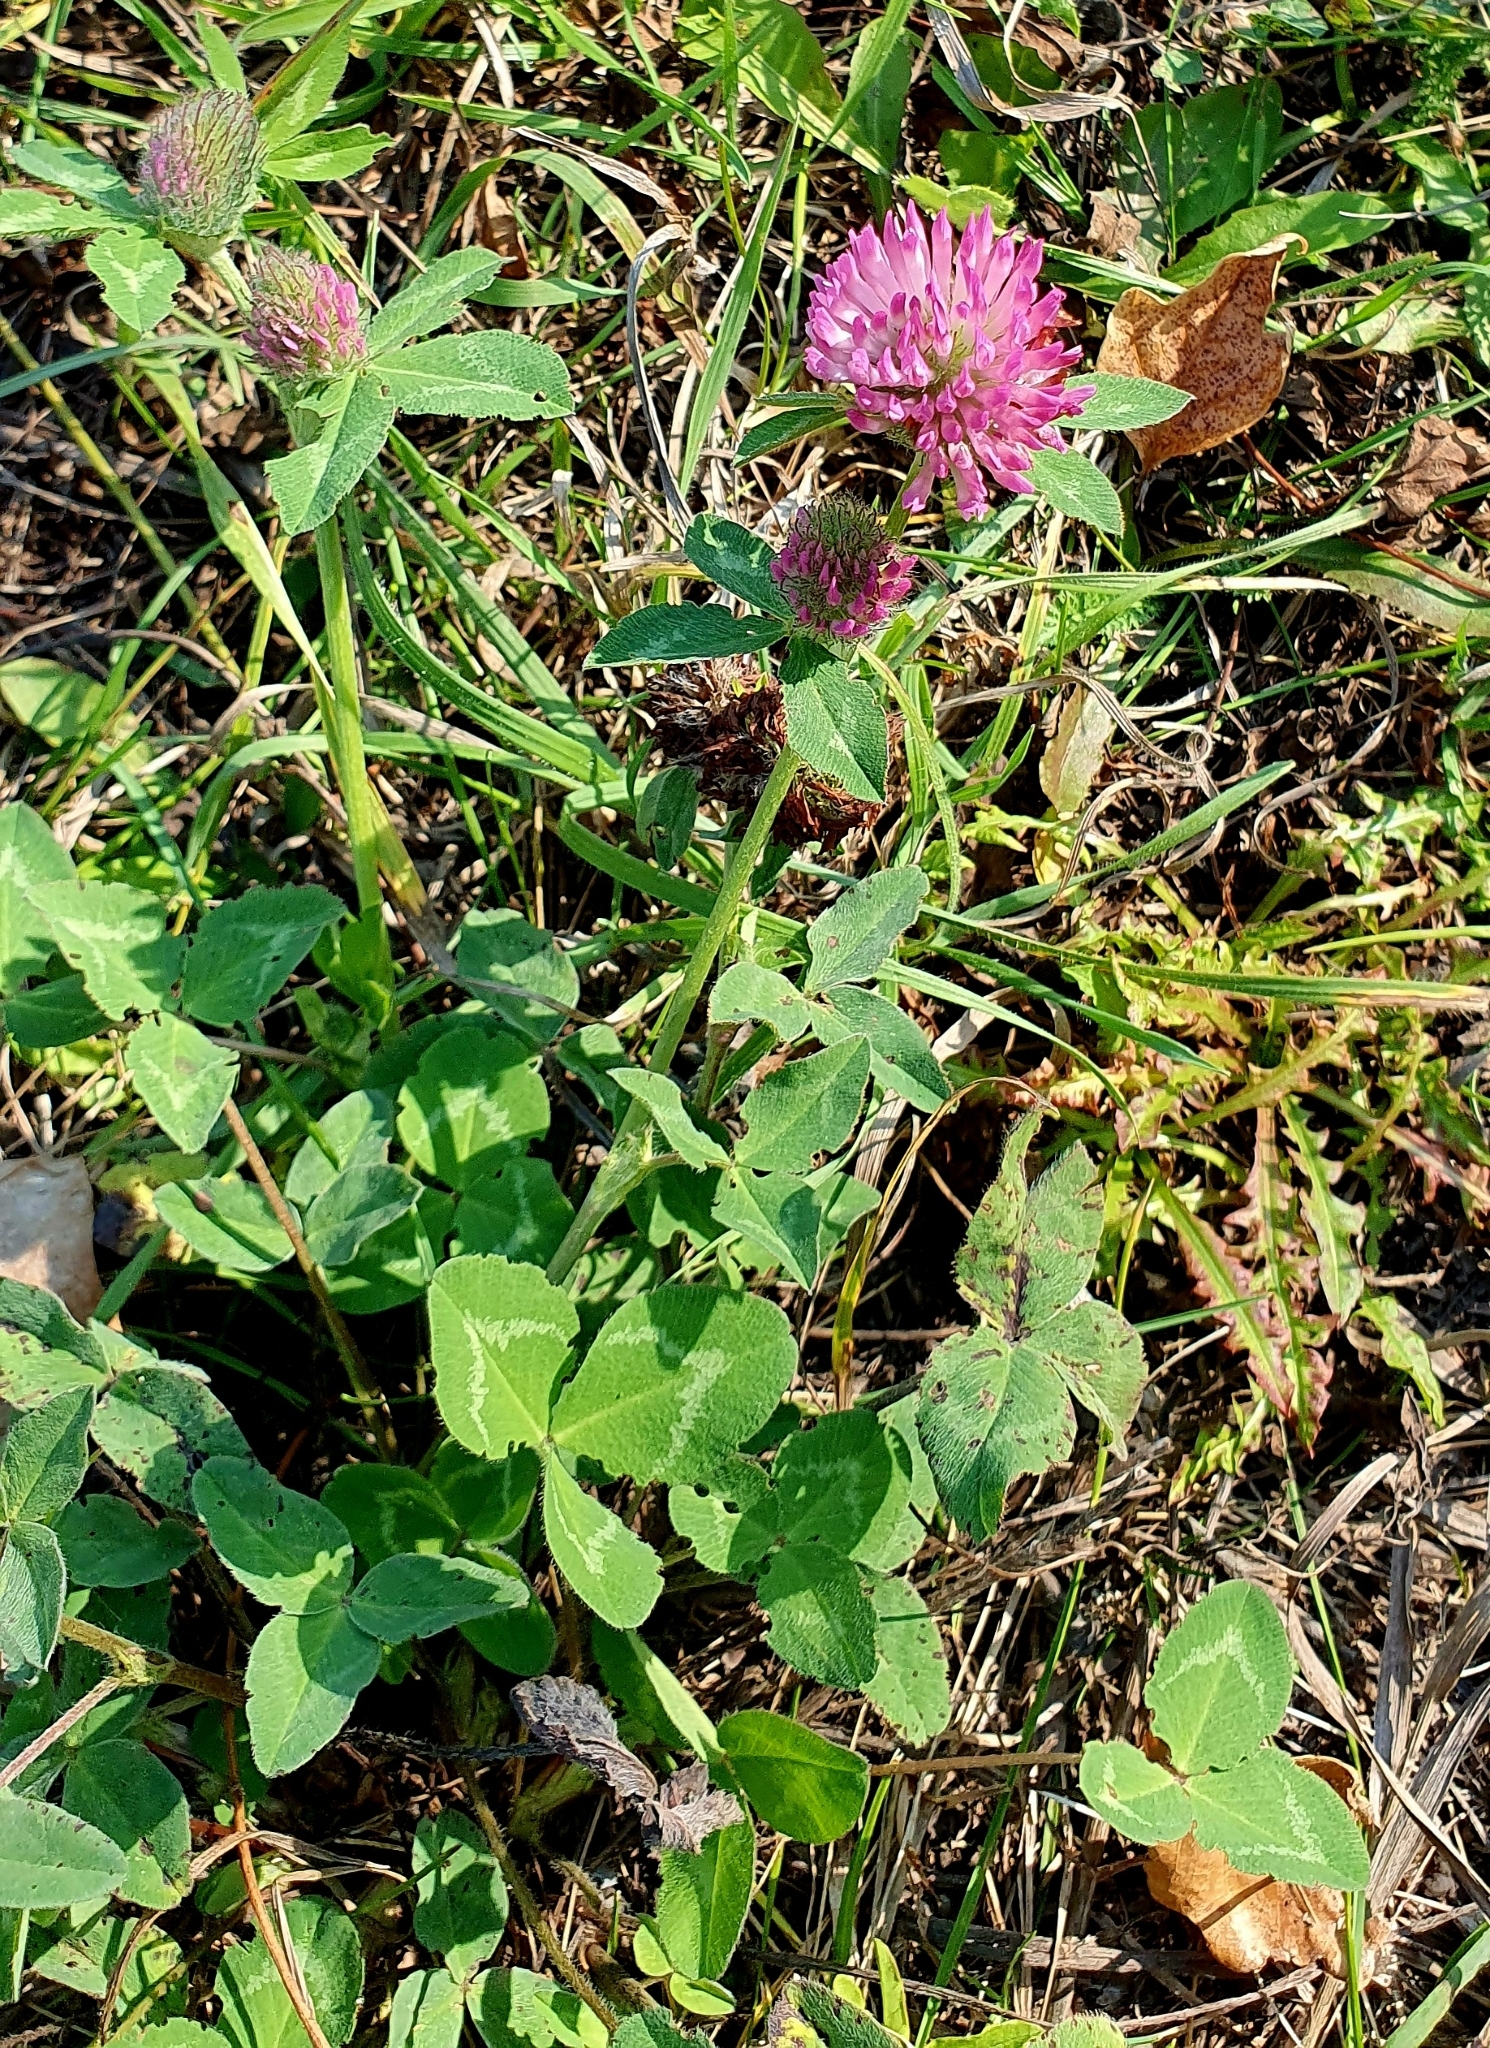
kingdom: Plantae
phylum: Tracheophyta
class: Magnoliopsida
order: Fabales
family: Fabaceae
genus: Trifolium
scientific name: Trifolium pratense
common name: Red clover
